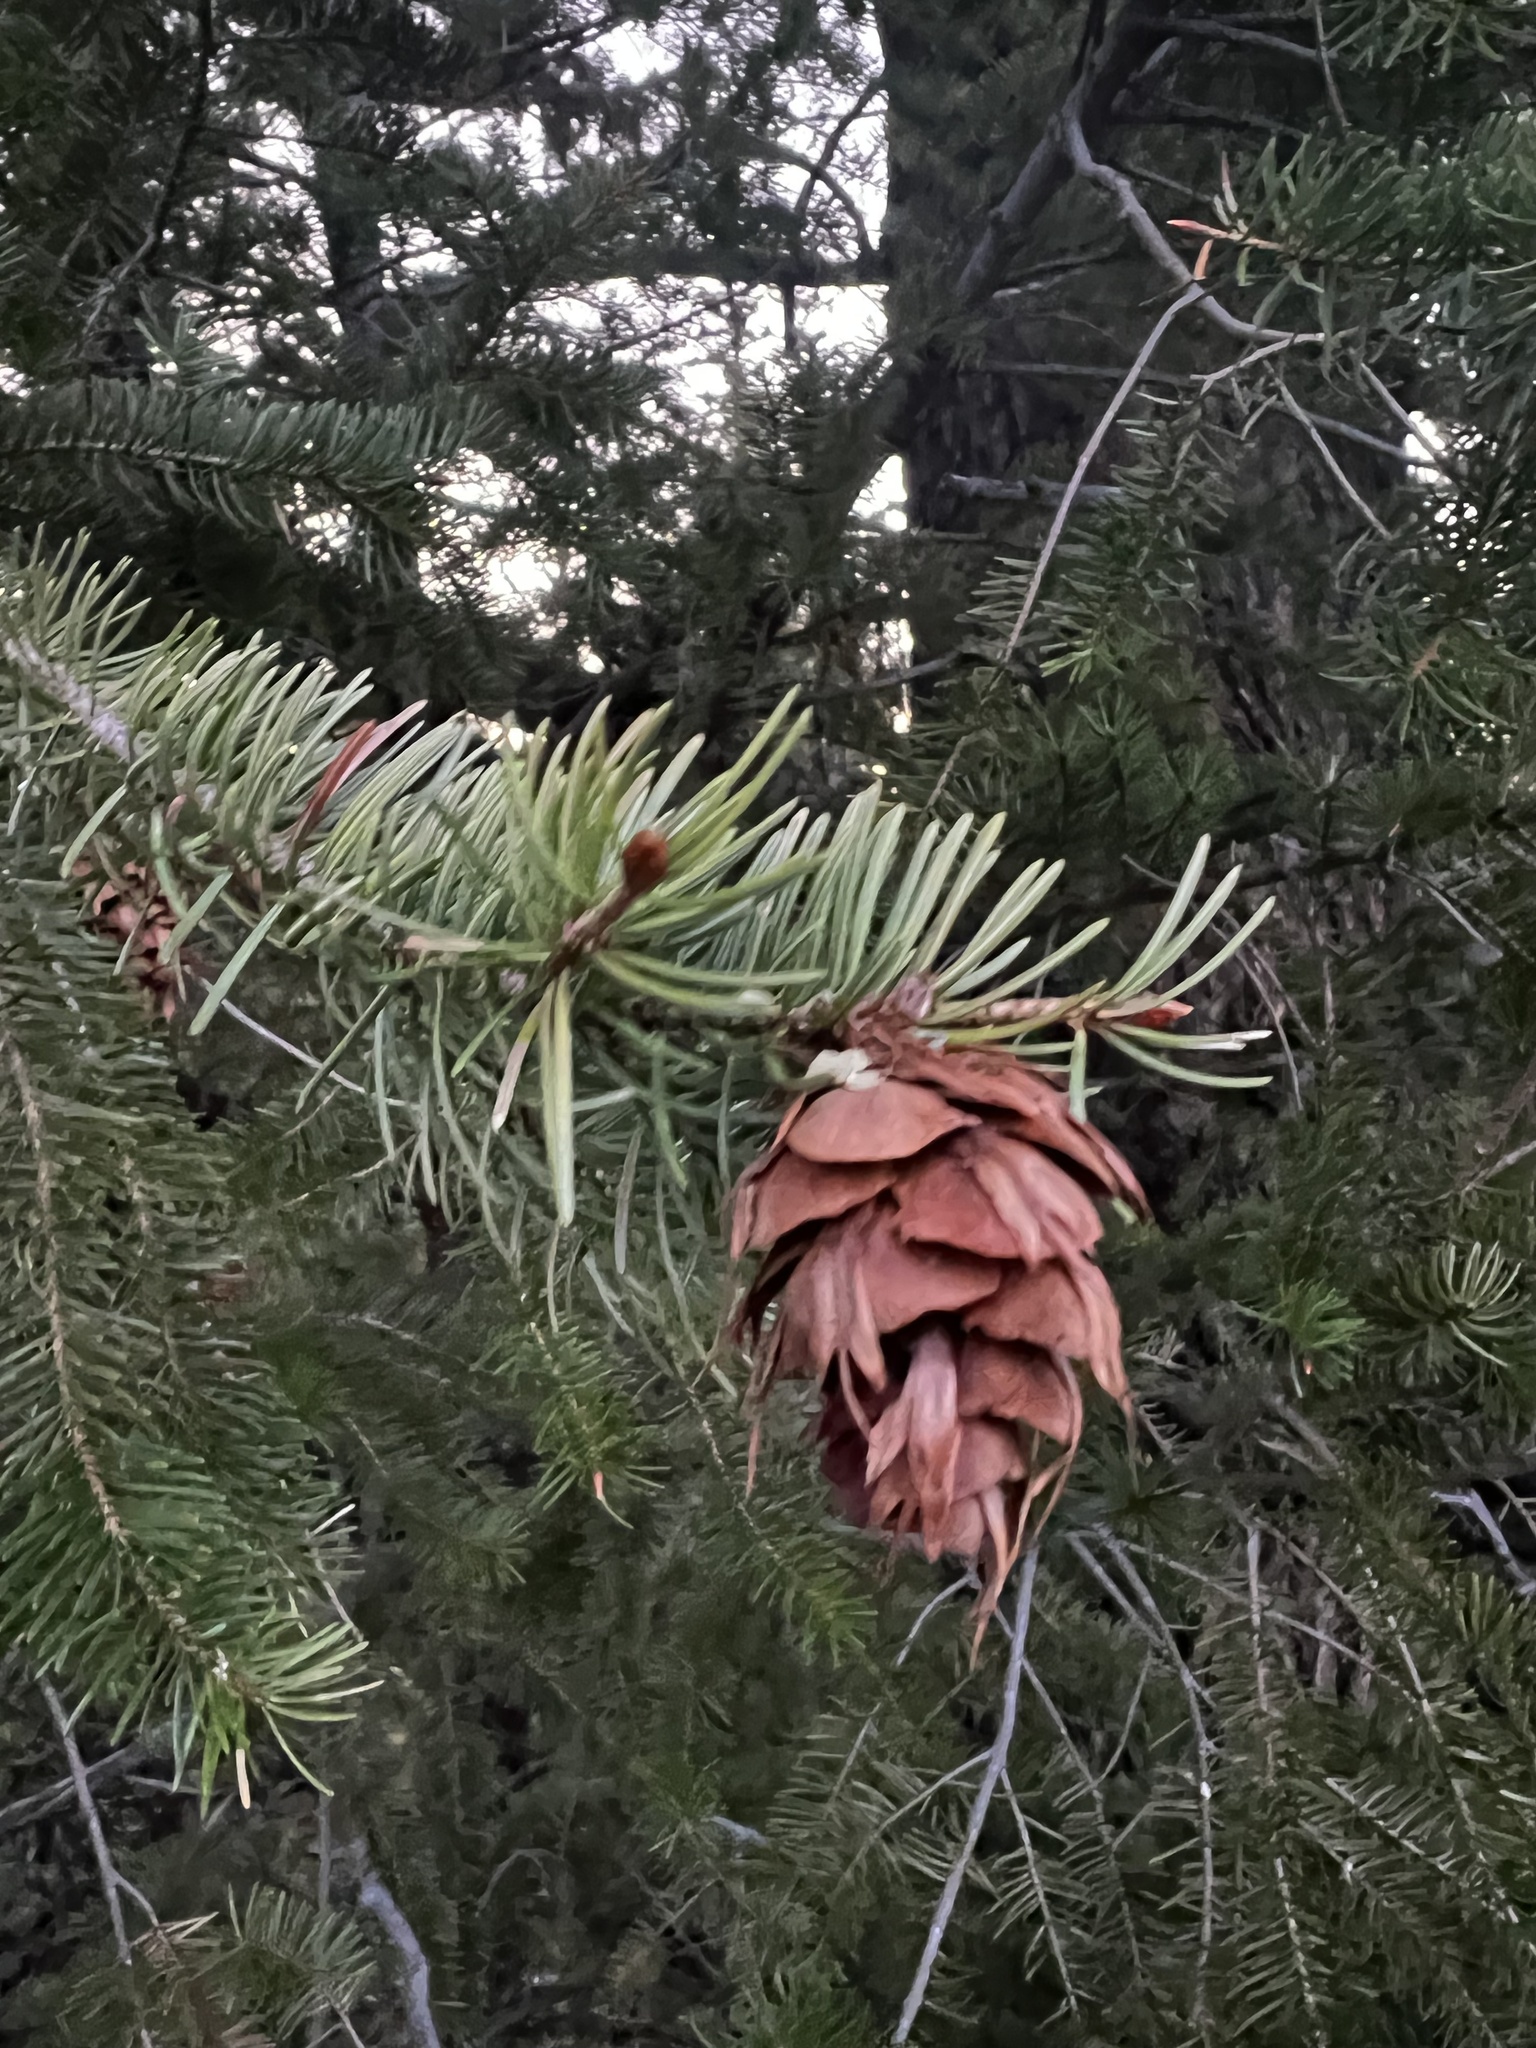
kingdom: Plantae
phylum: Tracheophyta
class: Pinopsida
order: Pinales
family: Pinaceae
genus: Pseudotsuga
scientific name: Pseudotsuga menziesii
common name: Douglas fir
